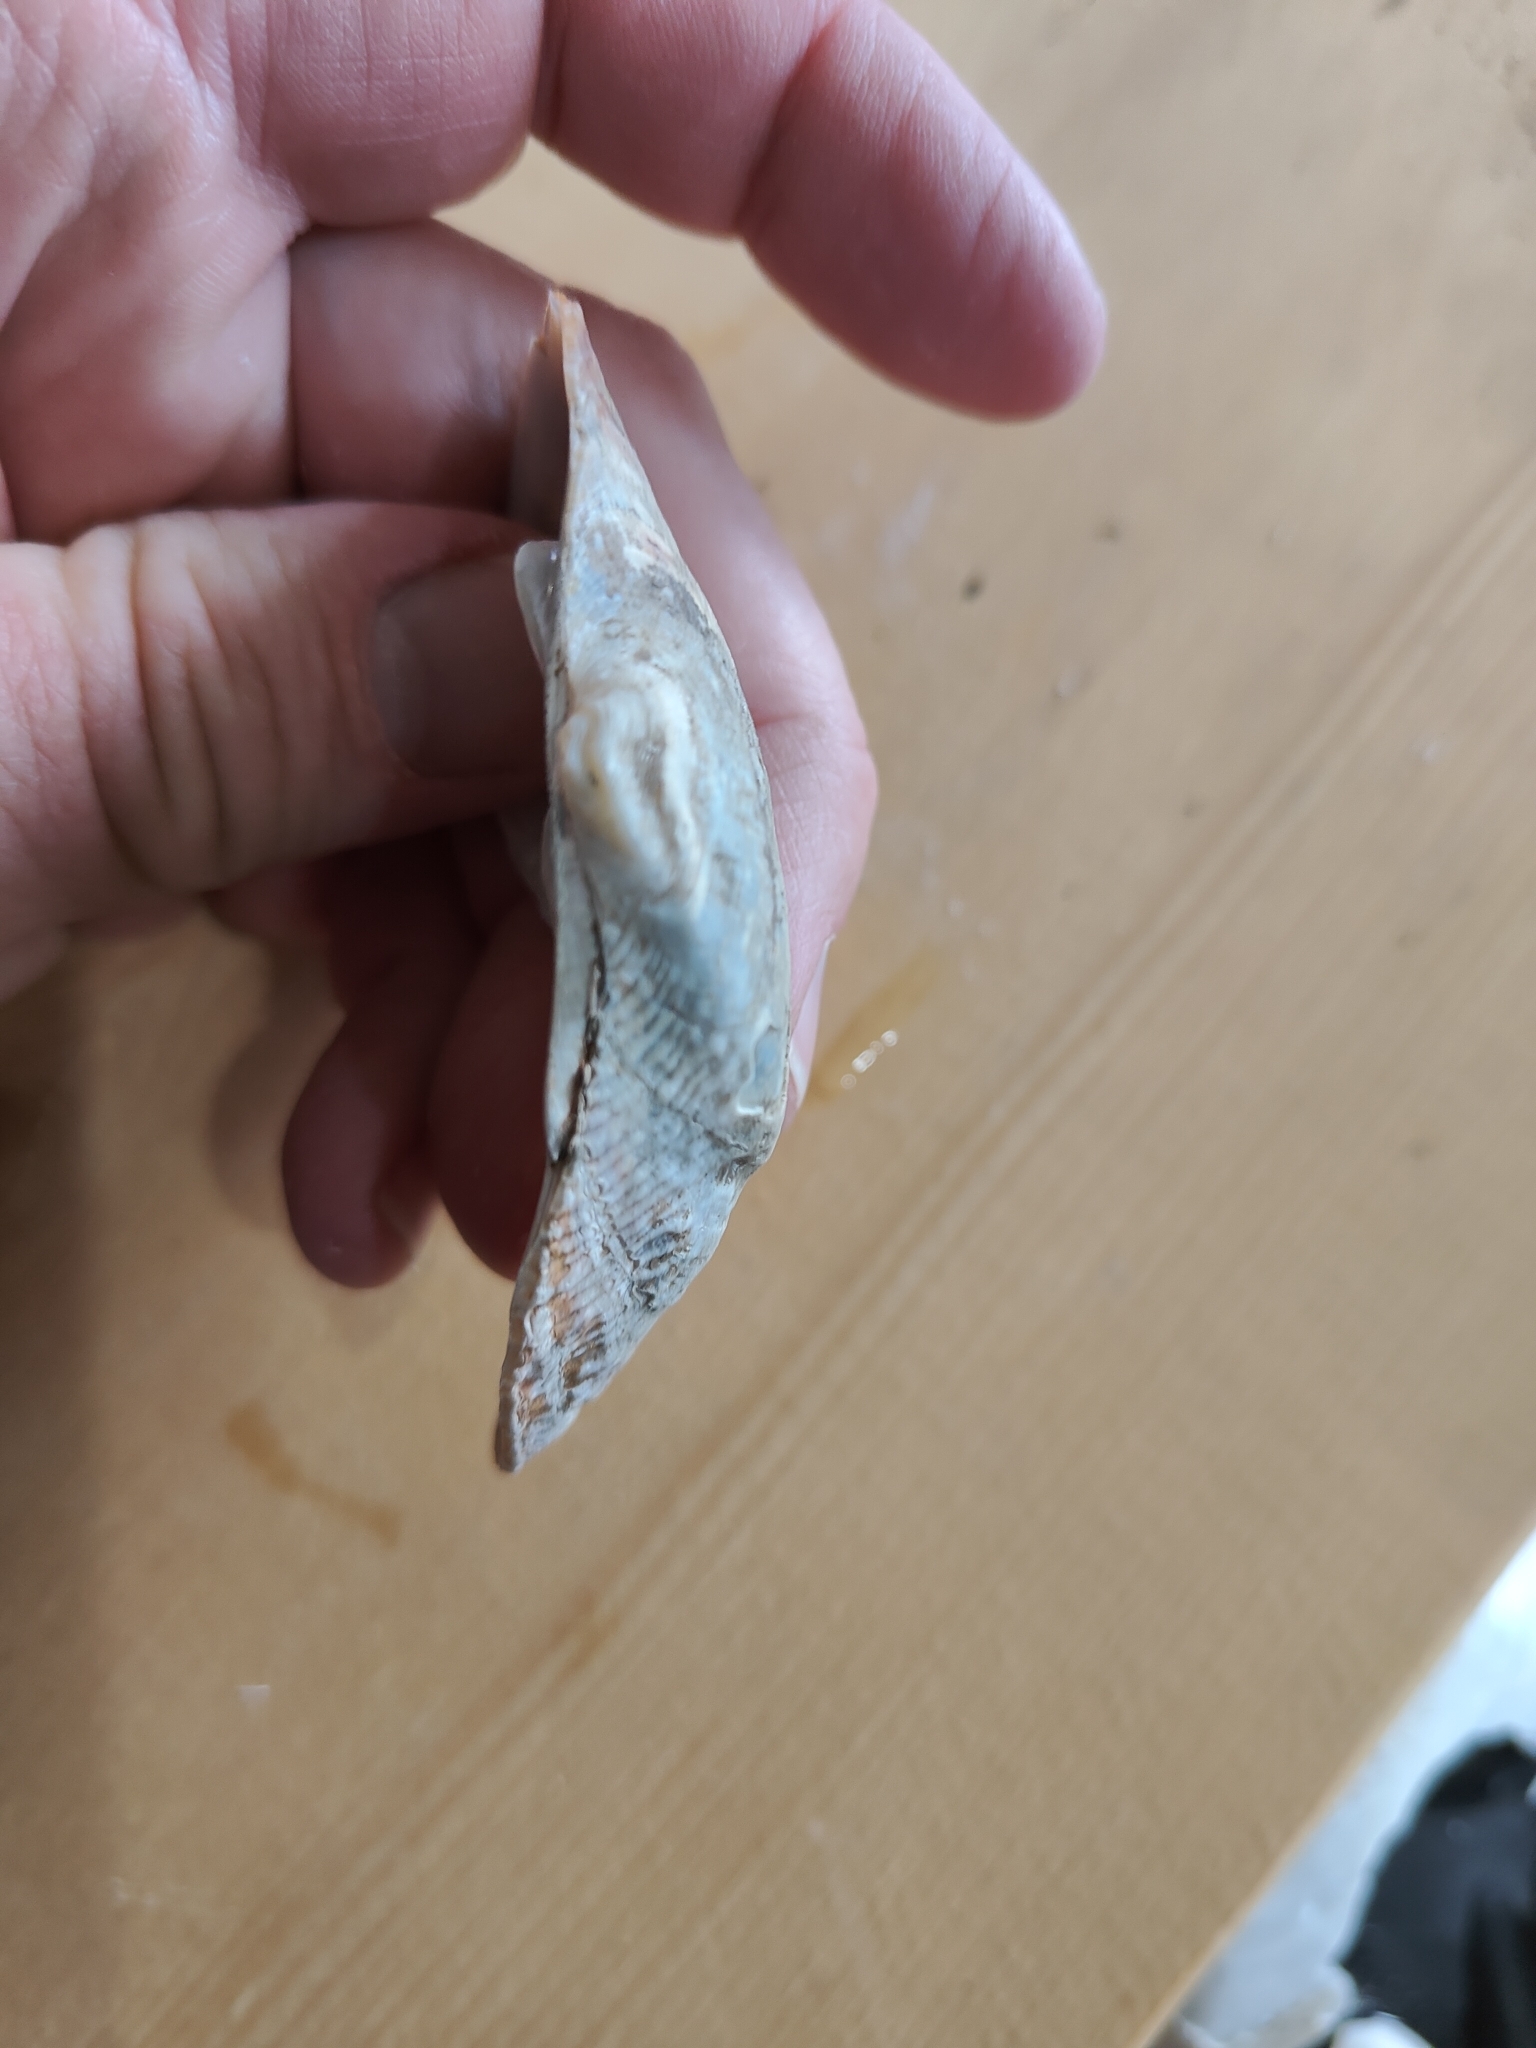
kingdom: Animalia
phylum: Mollusca
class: Bivalvia
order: Unionida
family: Unionidae
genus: Alasmidonta
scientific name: Alasmidonta marginata
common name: Elktoe
